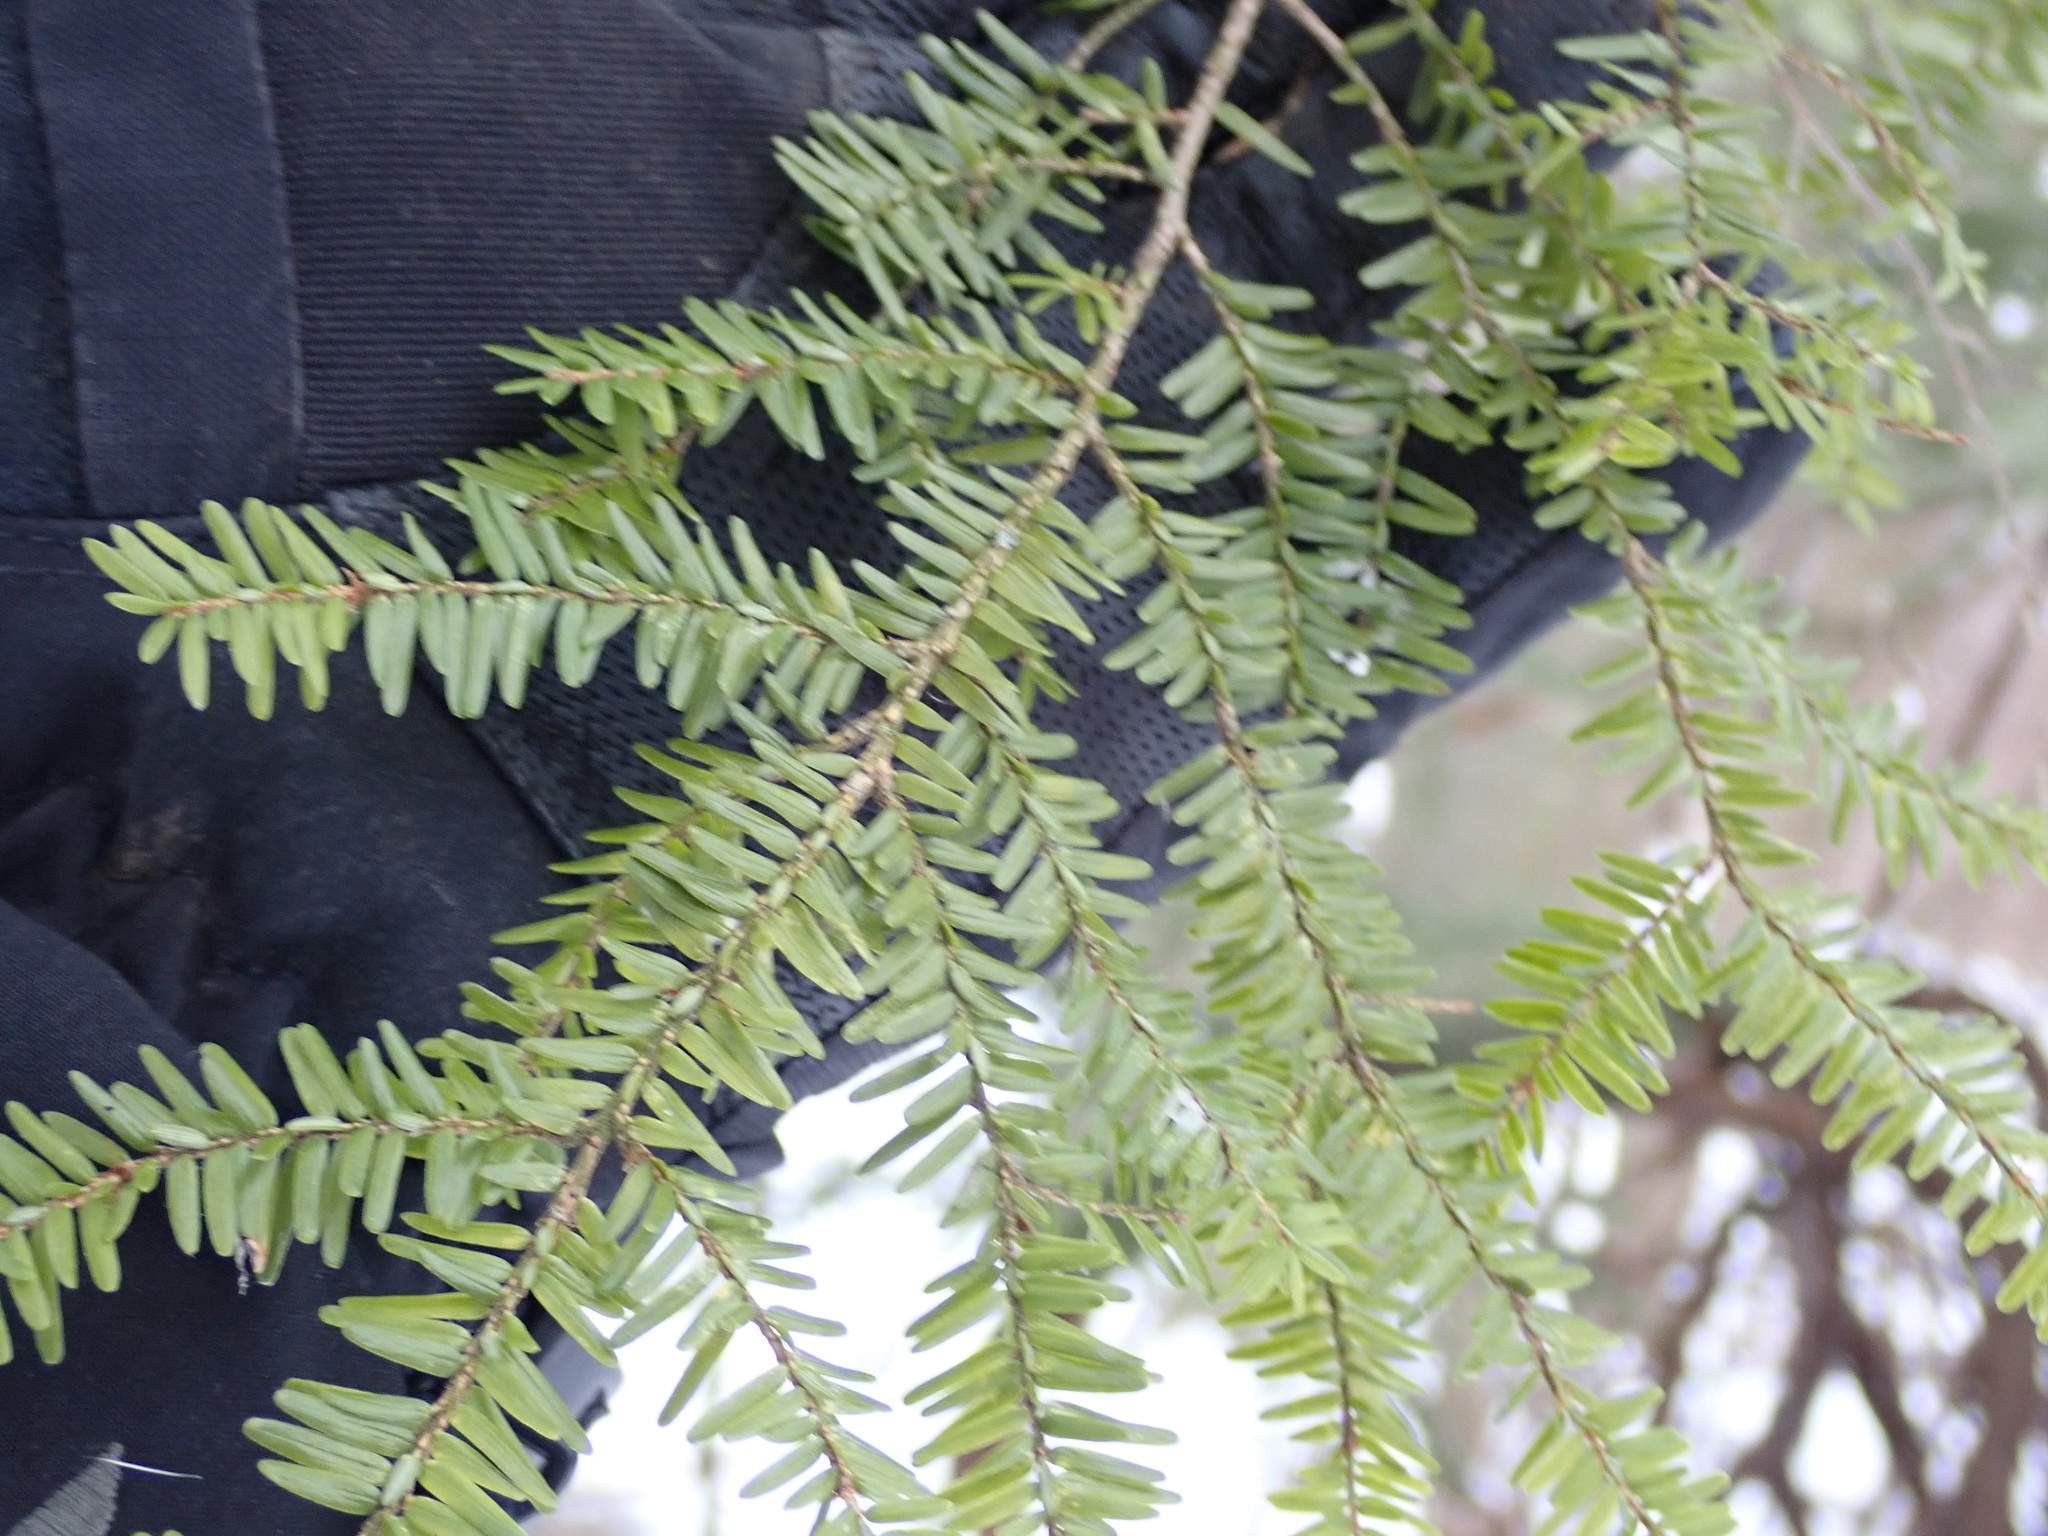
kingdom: Plantae
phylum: Tracheophyta
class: Pinopsida
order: Pinales
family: Pinaceae
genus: Tsuga
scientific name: Tsuga canadensis
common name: Eastern hemlock
